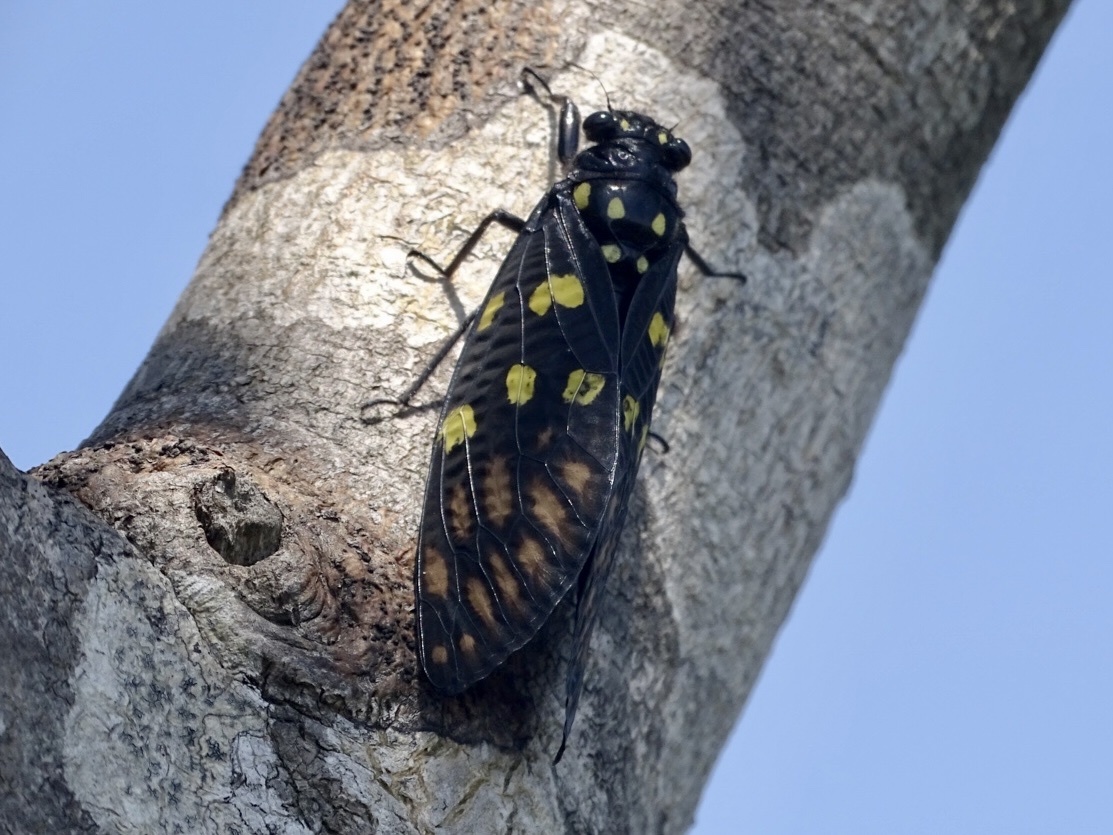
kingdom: Animalia
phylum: Arthropoda
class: Insecta
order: Hemiptera
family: Cicadidae
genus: Gaeana
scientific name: Gaeana maculata
